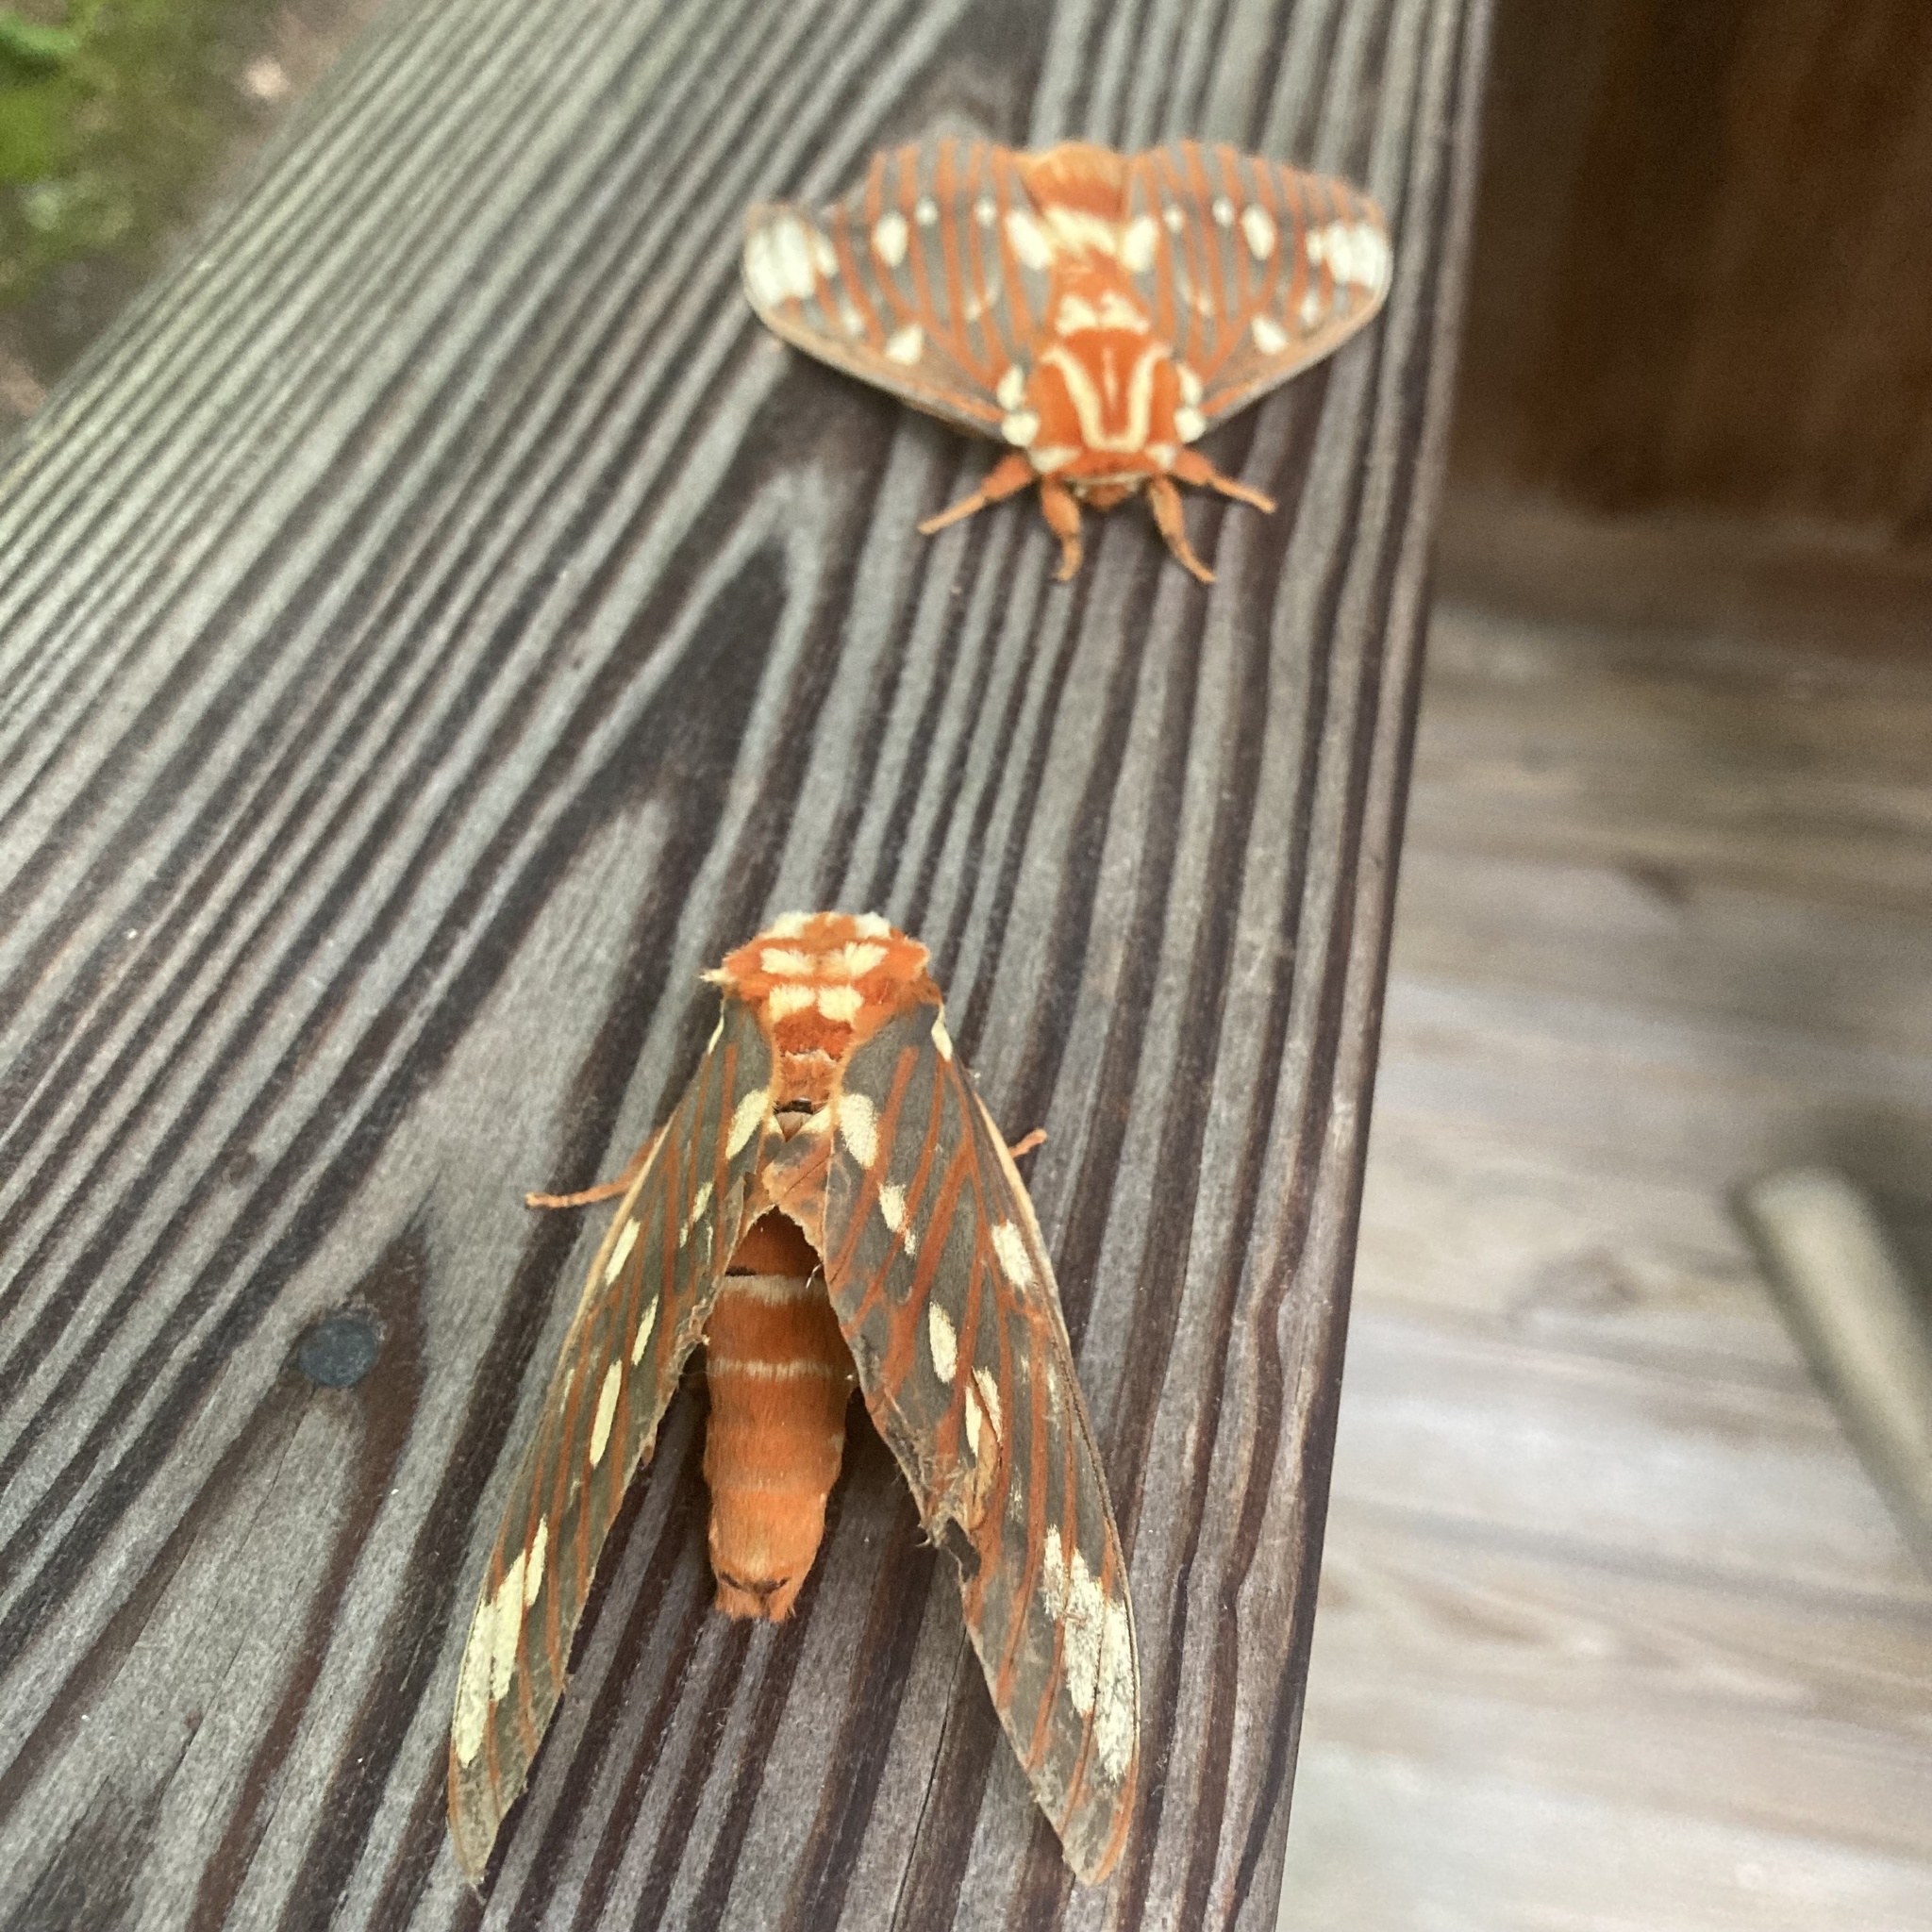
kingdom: Animalia
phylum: Arthropoda
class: Insecta
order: Lepidoptera
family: Saturniidae
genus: Citheronia
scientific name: Citheronia regalis
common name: Hickory horned devil
